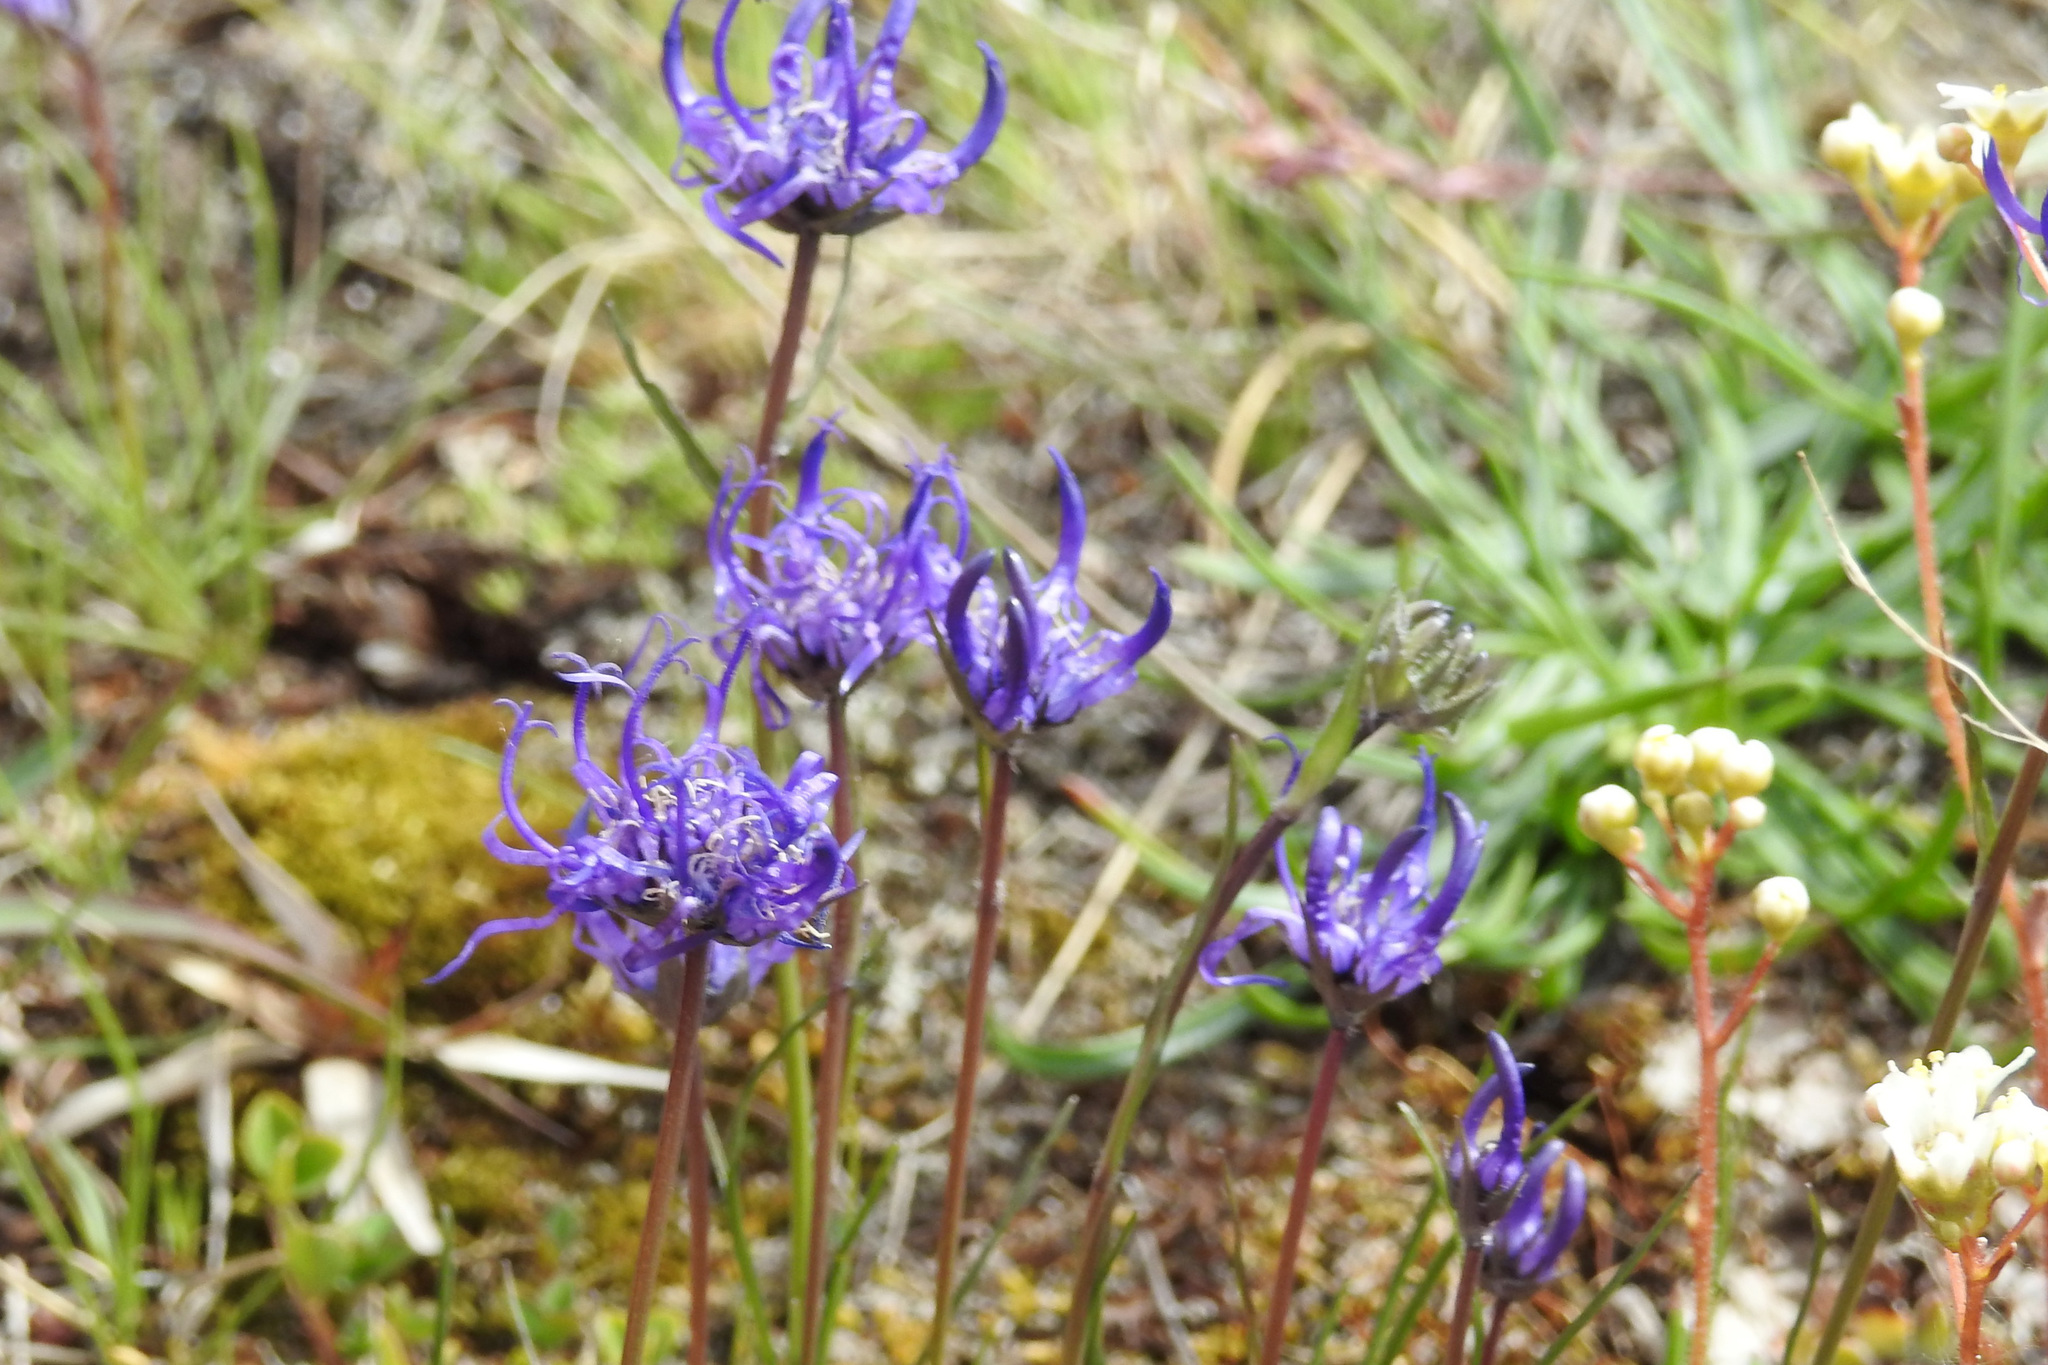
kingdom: Plantae
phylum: Tracheophyta
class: Magnoliopsida
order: Asterales
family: Campanulaceae
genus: Phyteuma
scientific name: Phyteuma hemisphaericum
